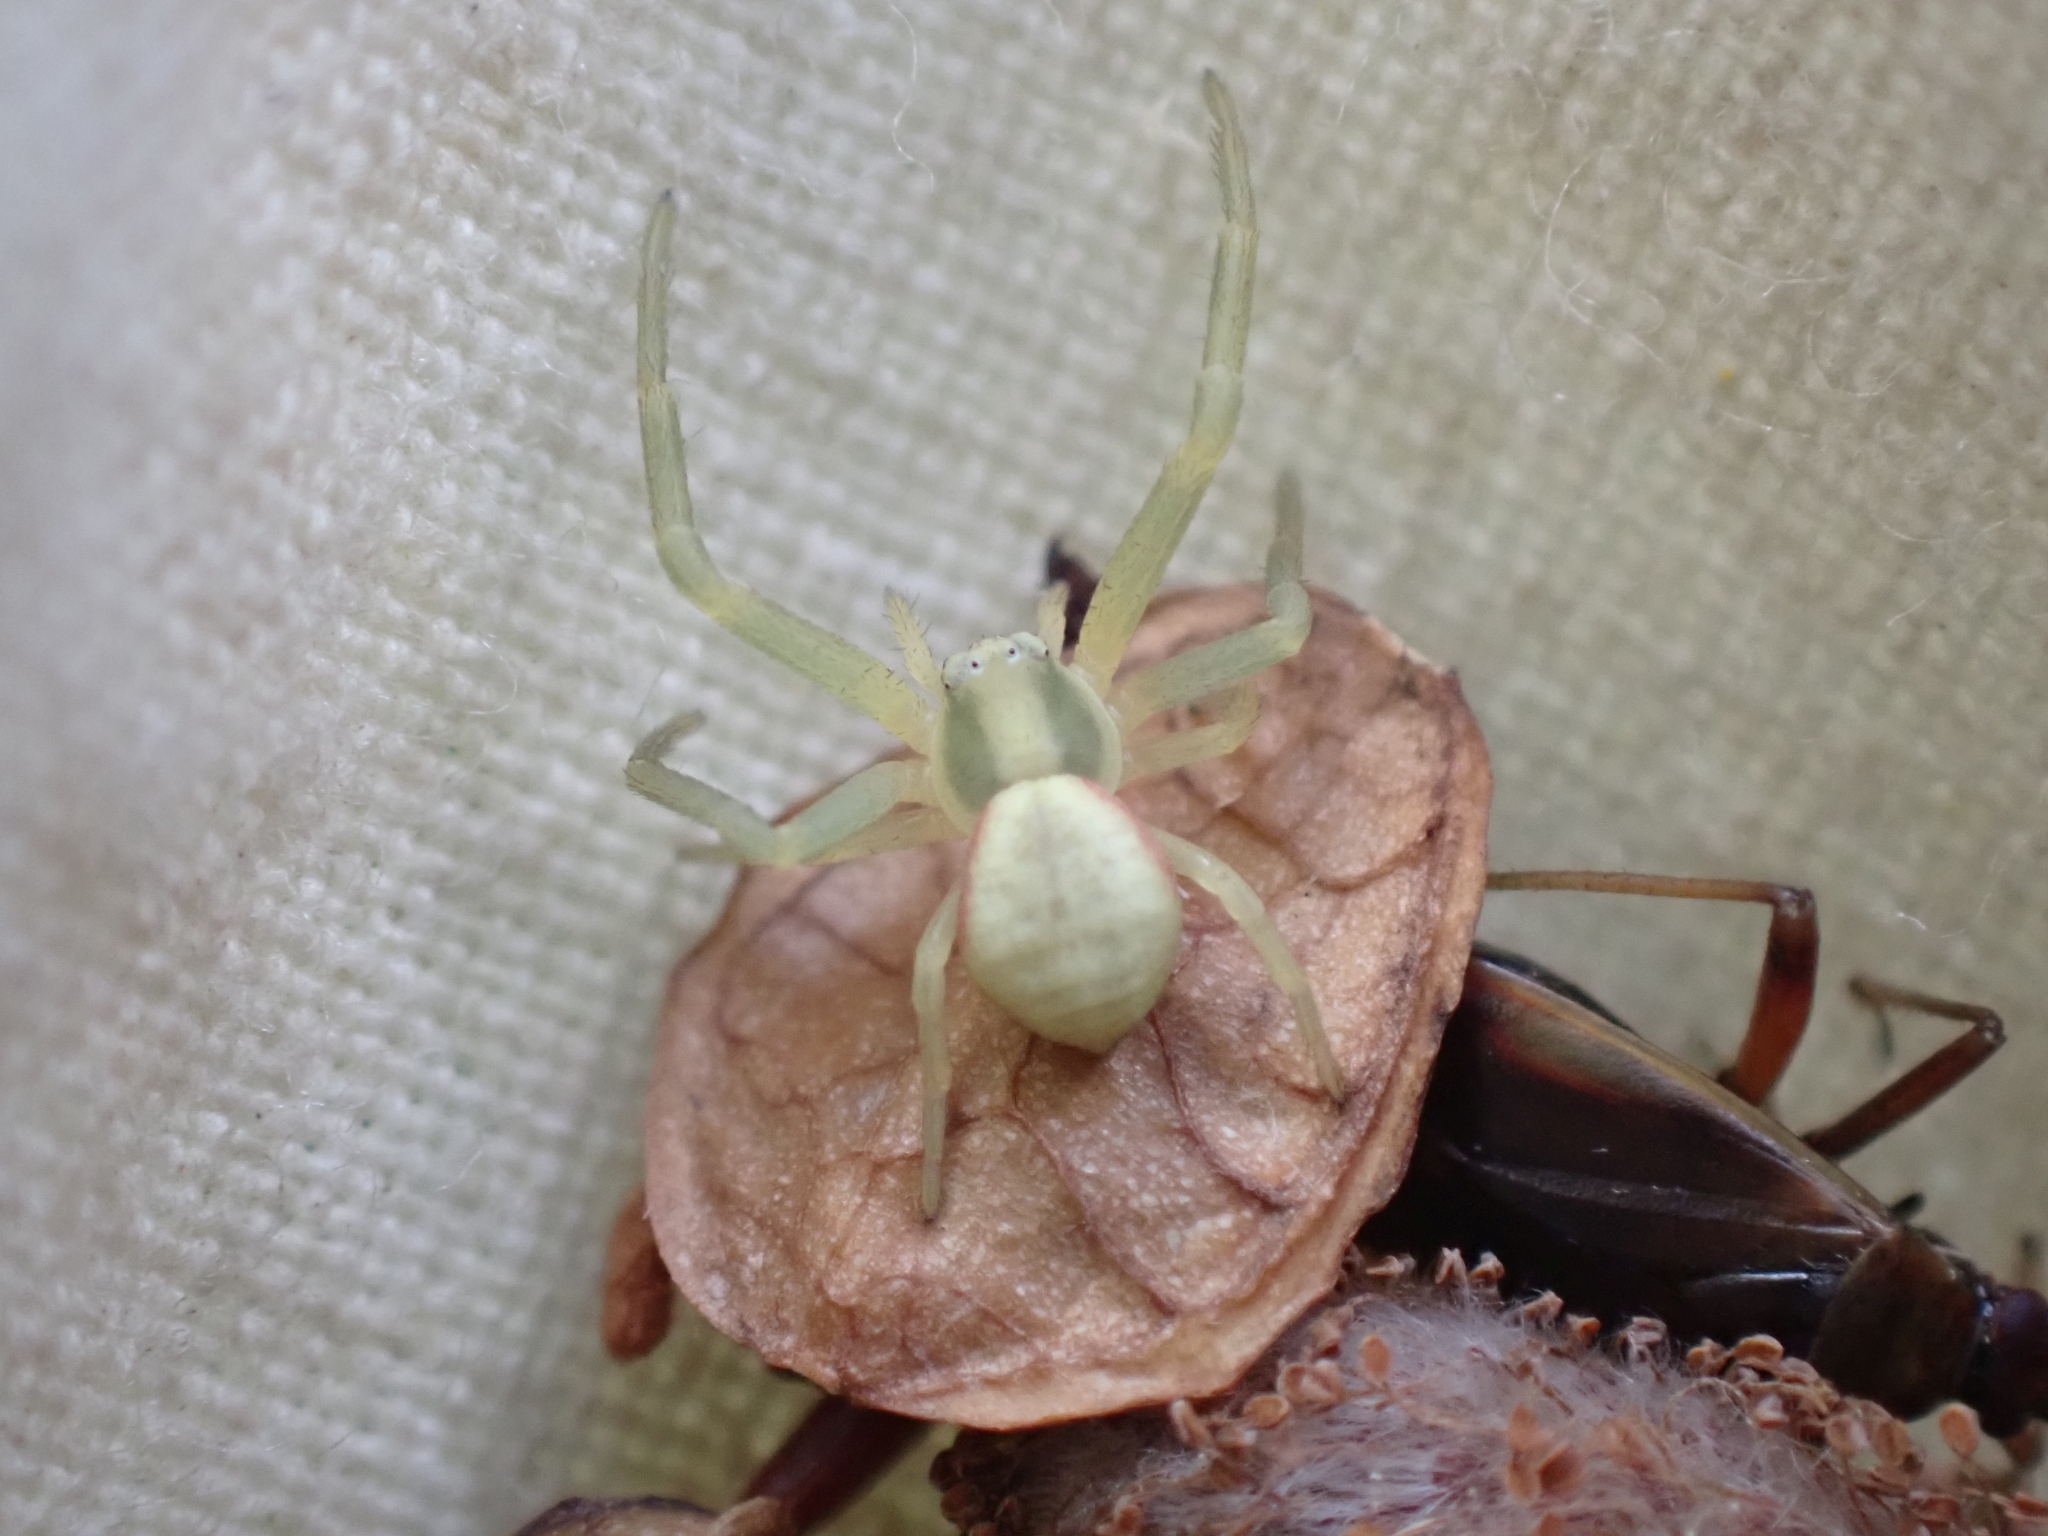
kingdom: Animalia
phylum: Arthropoda
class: Arachnida
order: Araneae
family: Thomisidae
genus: Misumena
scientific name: Misumena vatia
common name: Goldenrod crab spider
